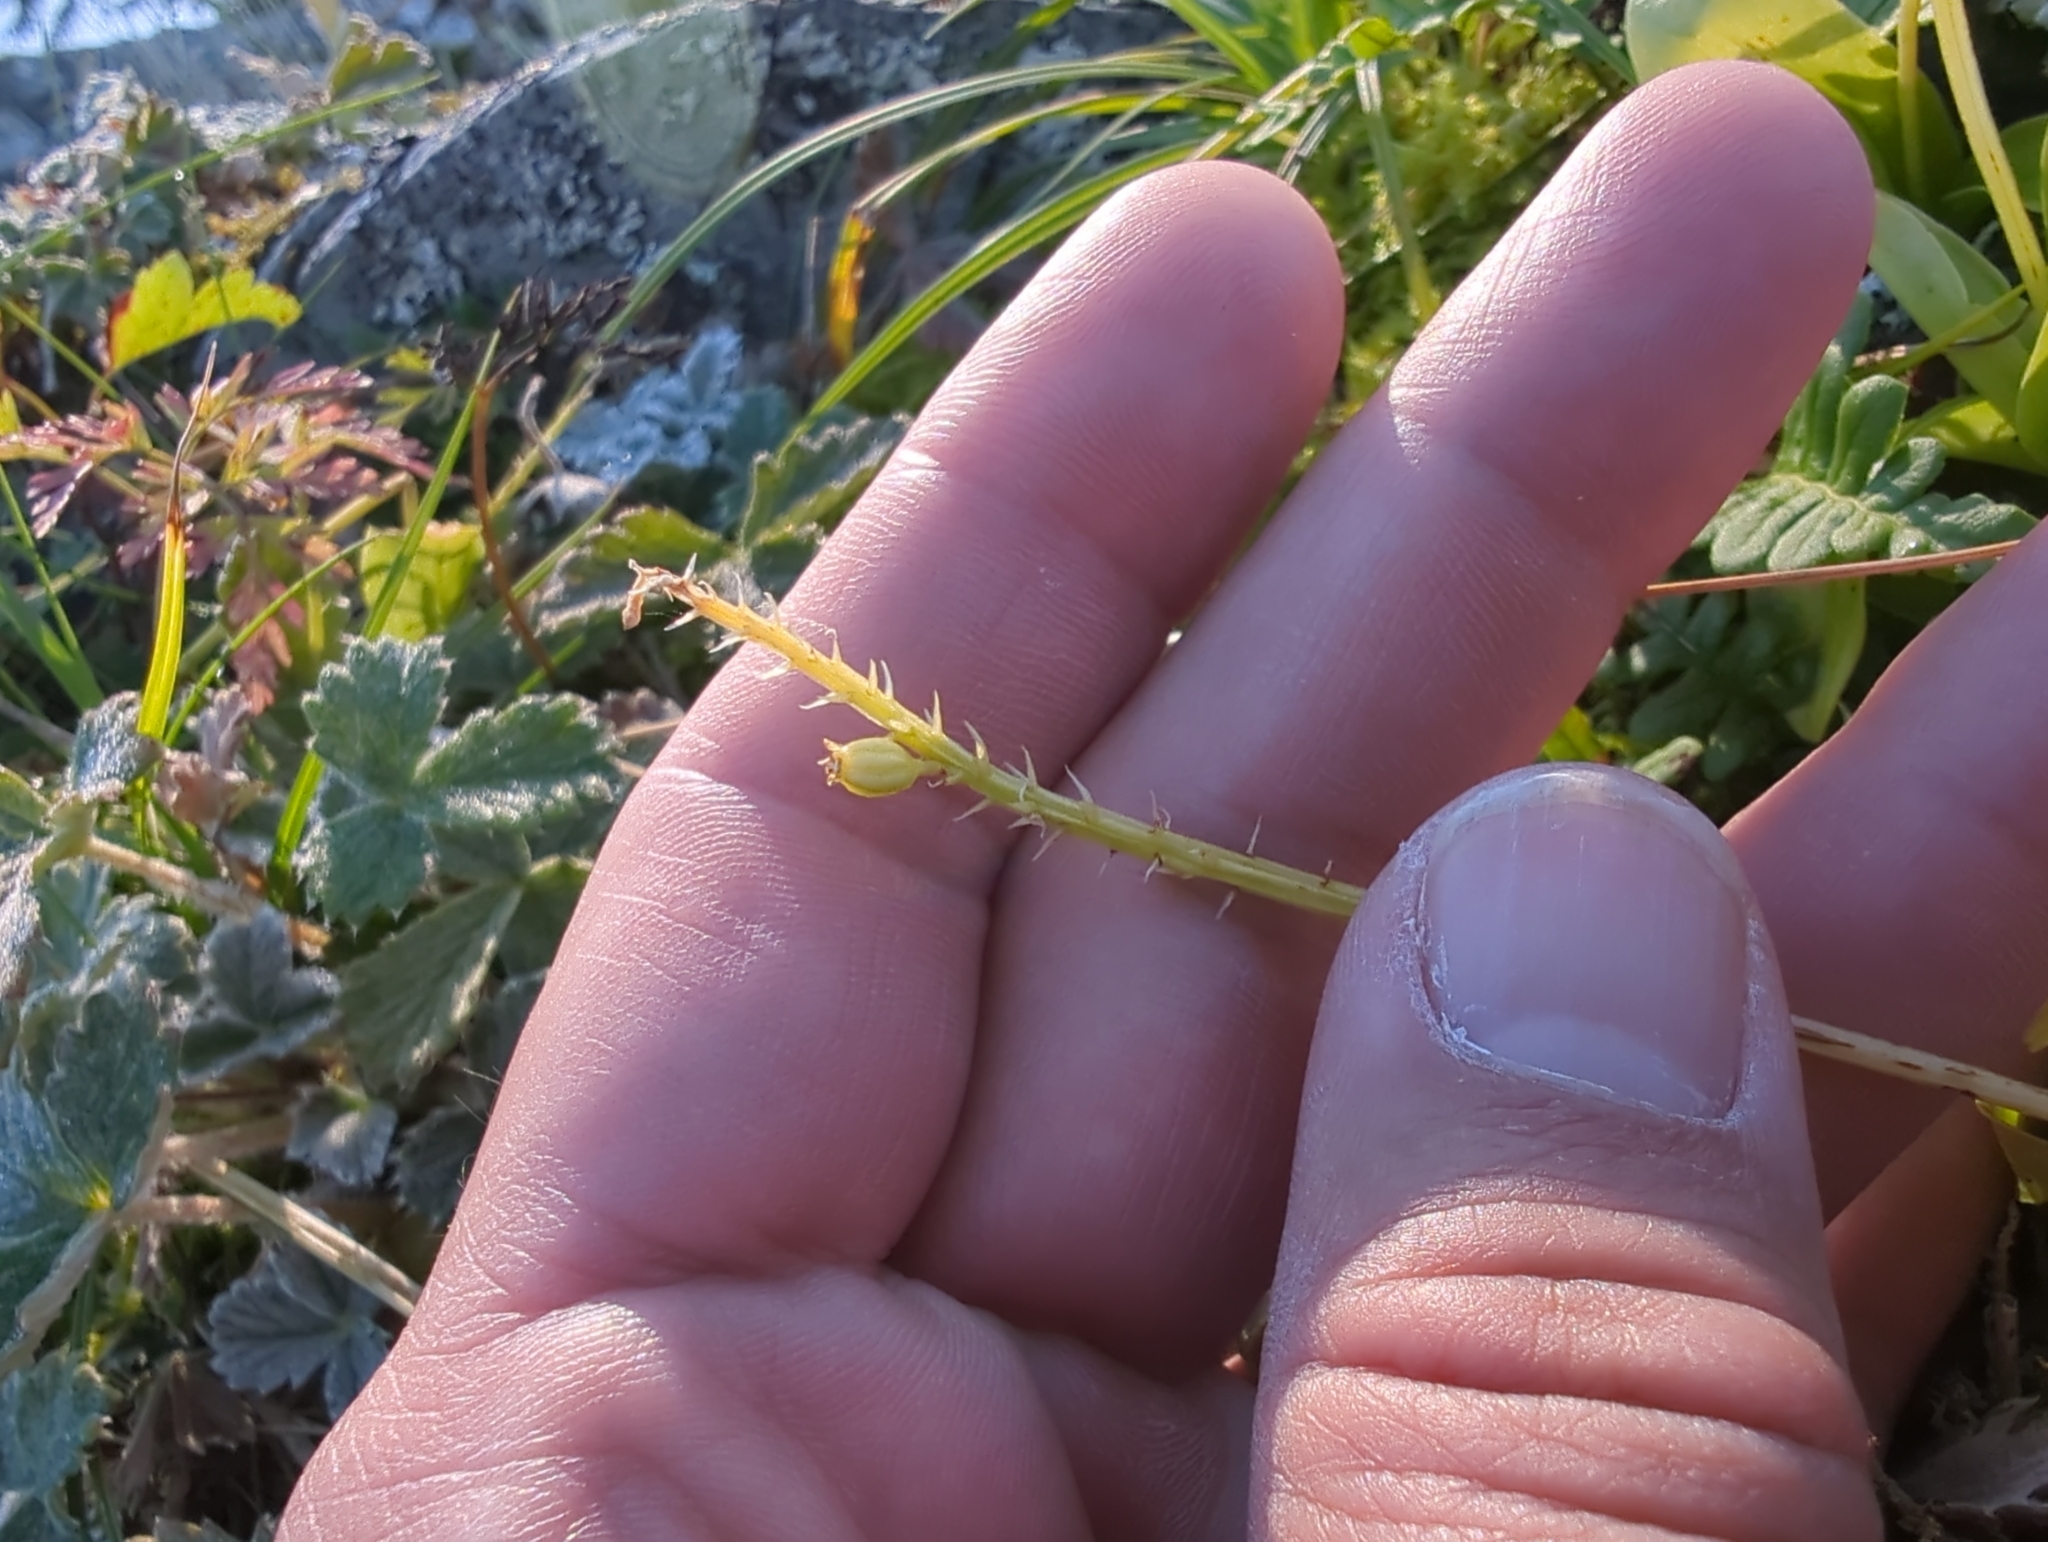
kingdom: Plantae
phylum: Tracheophyta
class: Liliopsida
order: Asparagales
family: Orchidaceae
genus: Malaxis
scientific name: Malaxis monophyllos
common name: White adder's-mouth
